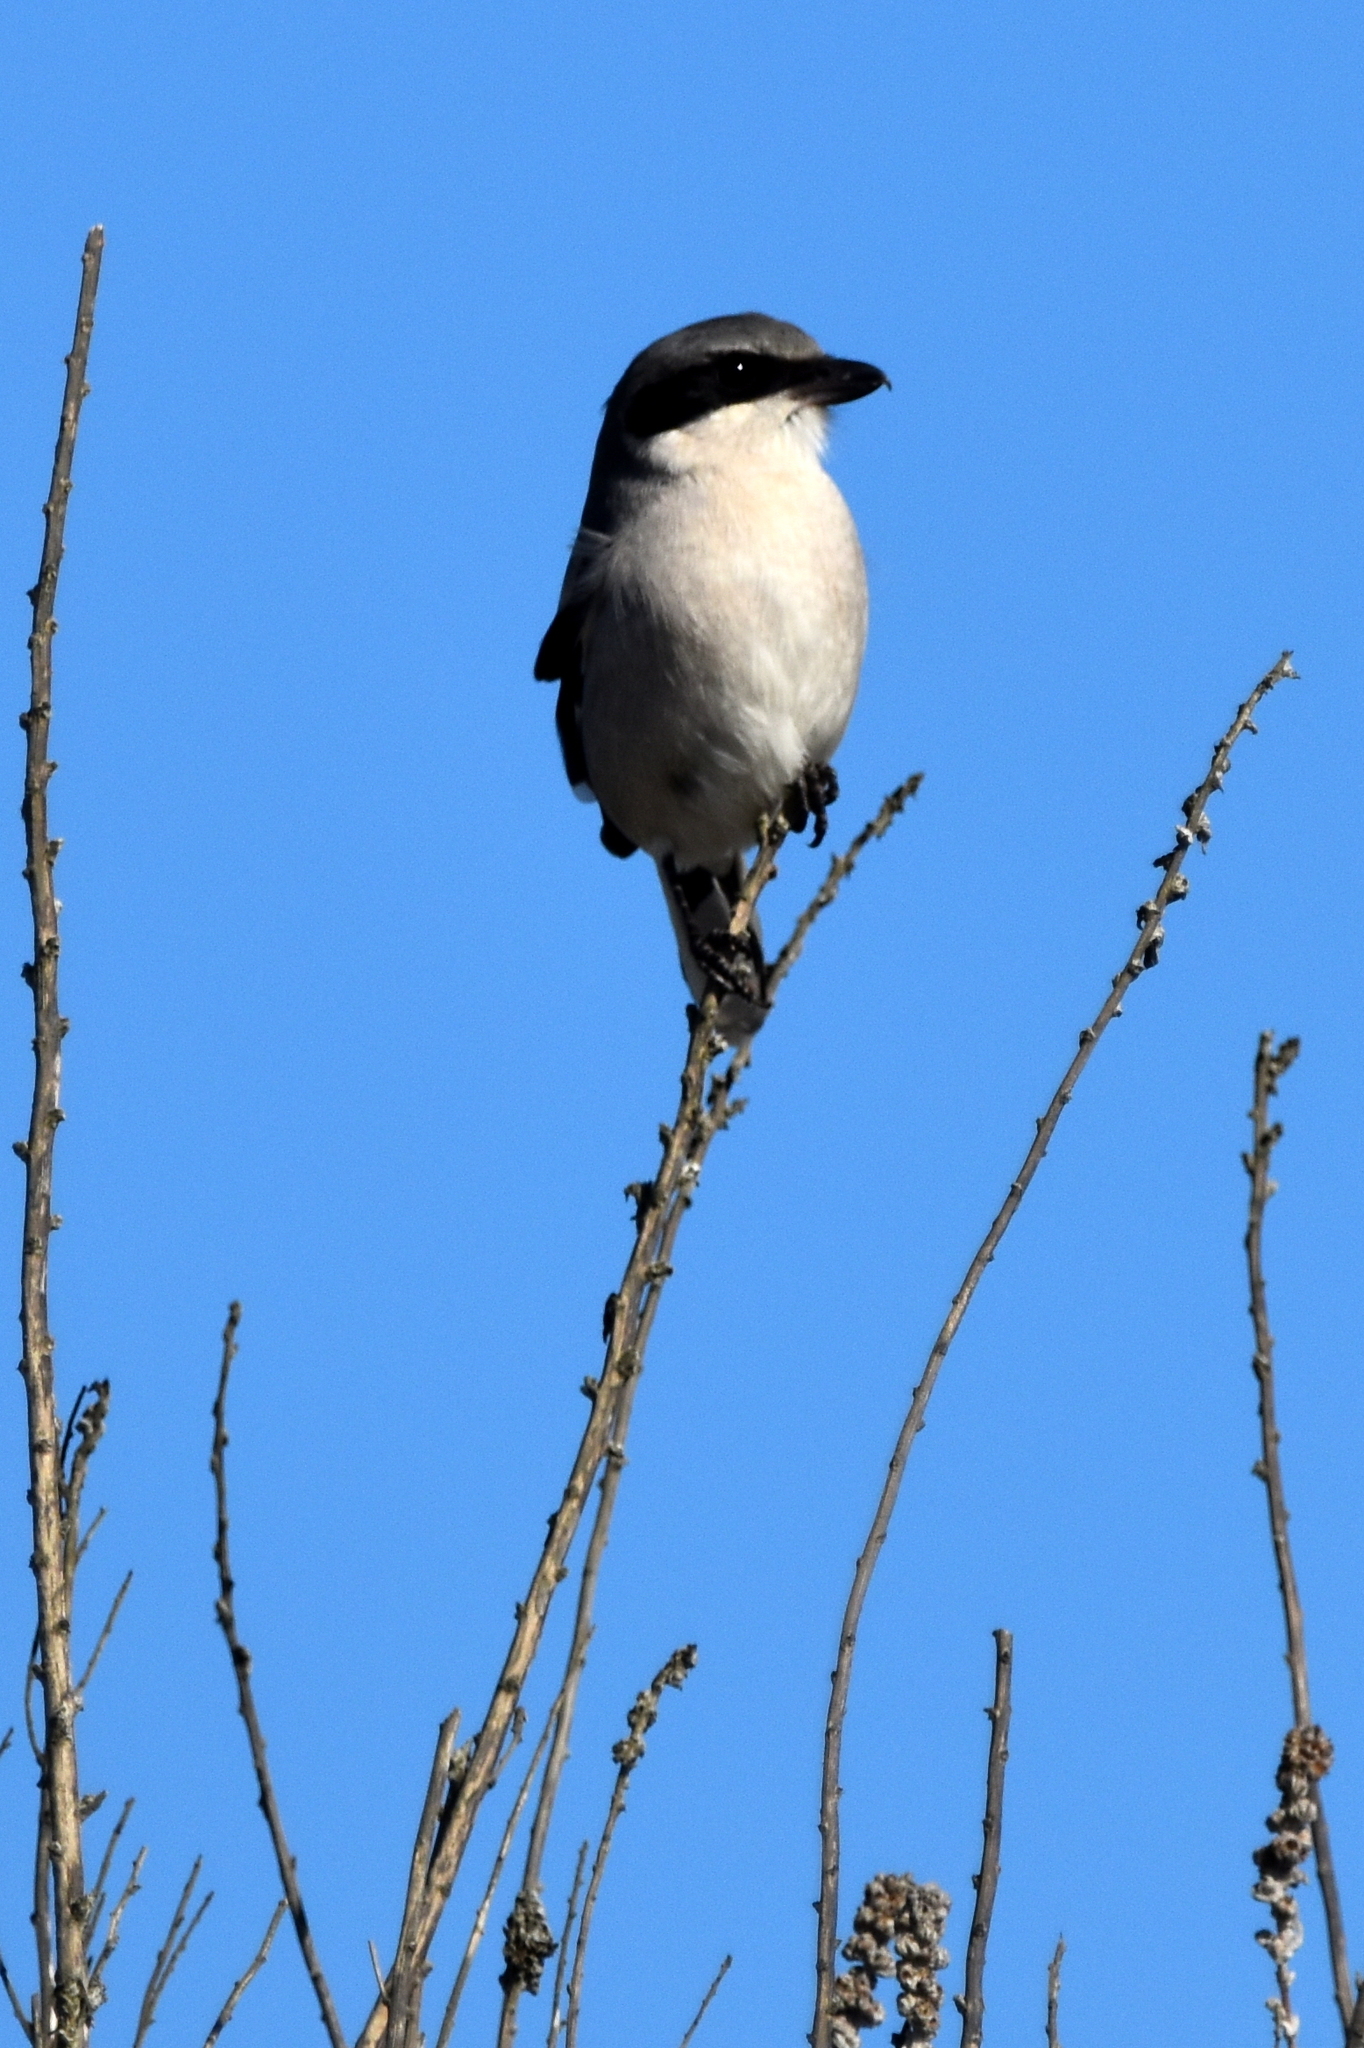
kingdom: Animalia
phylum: Chordata
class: Aves
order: Passeriformes
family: Laniidae
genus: Lanius
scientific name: Lanius ludovicianus
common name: Loggerhead shrike
